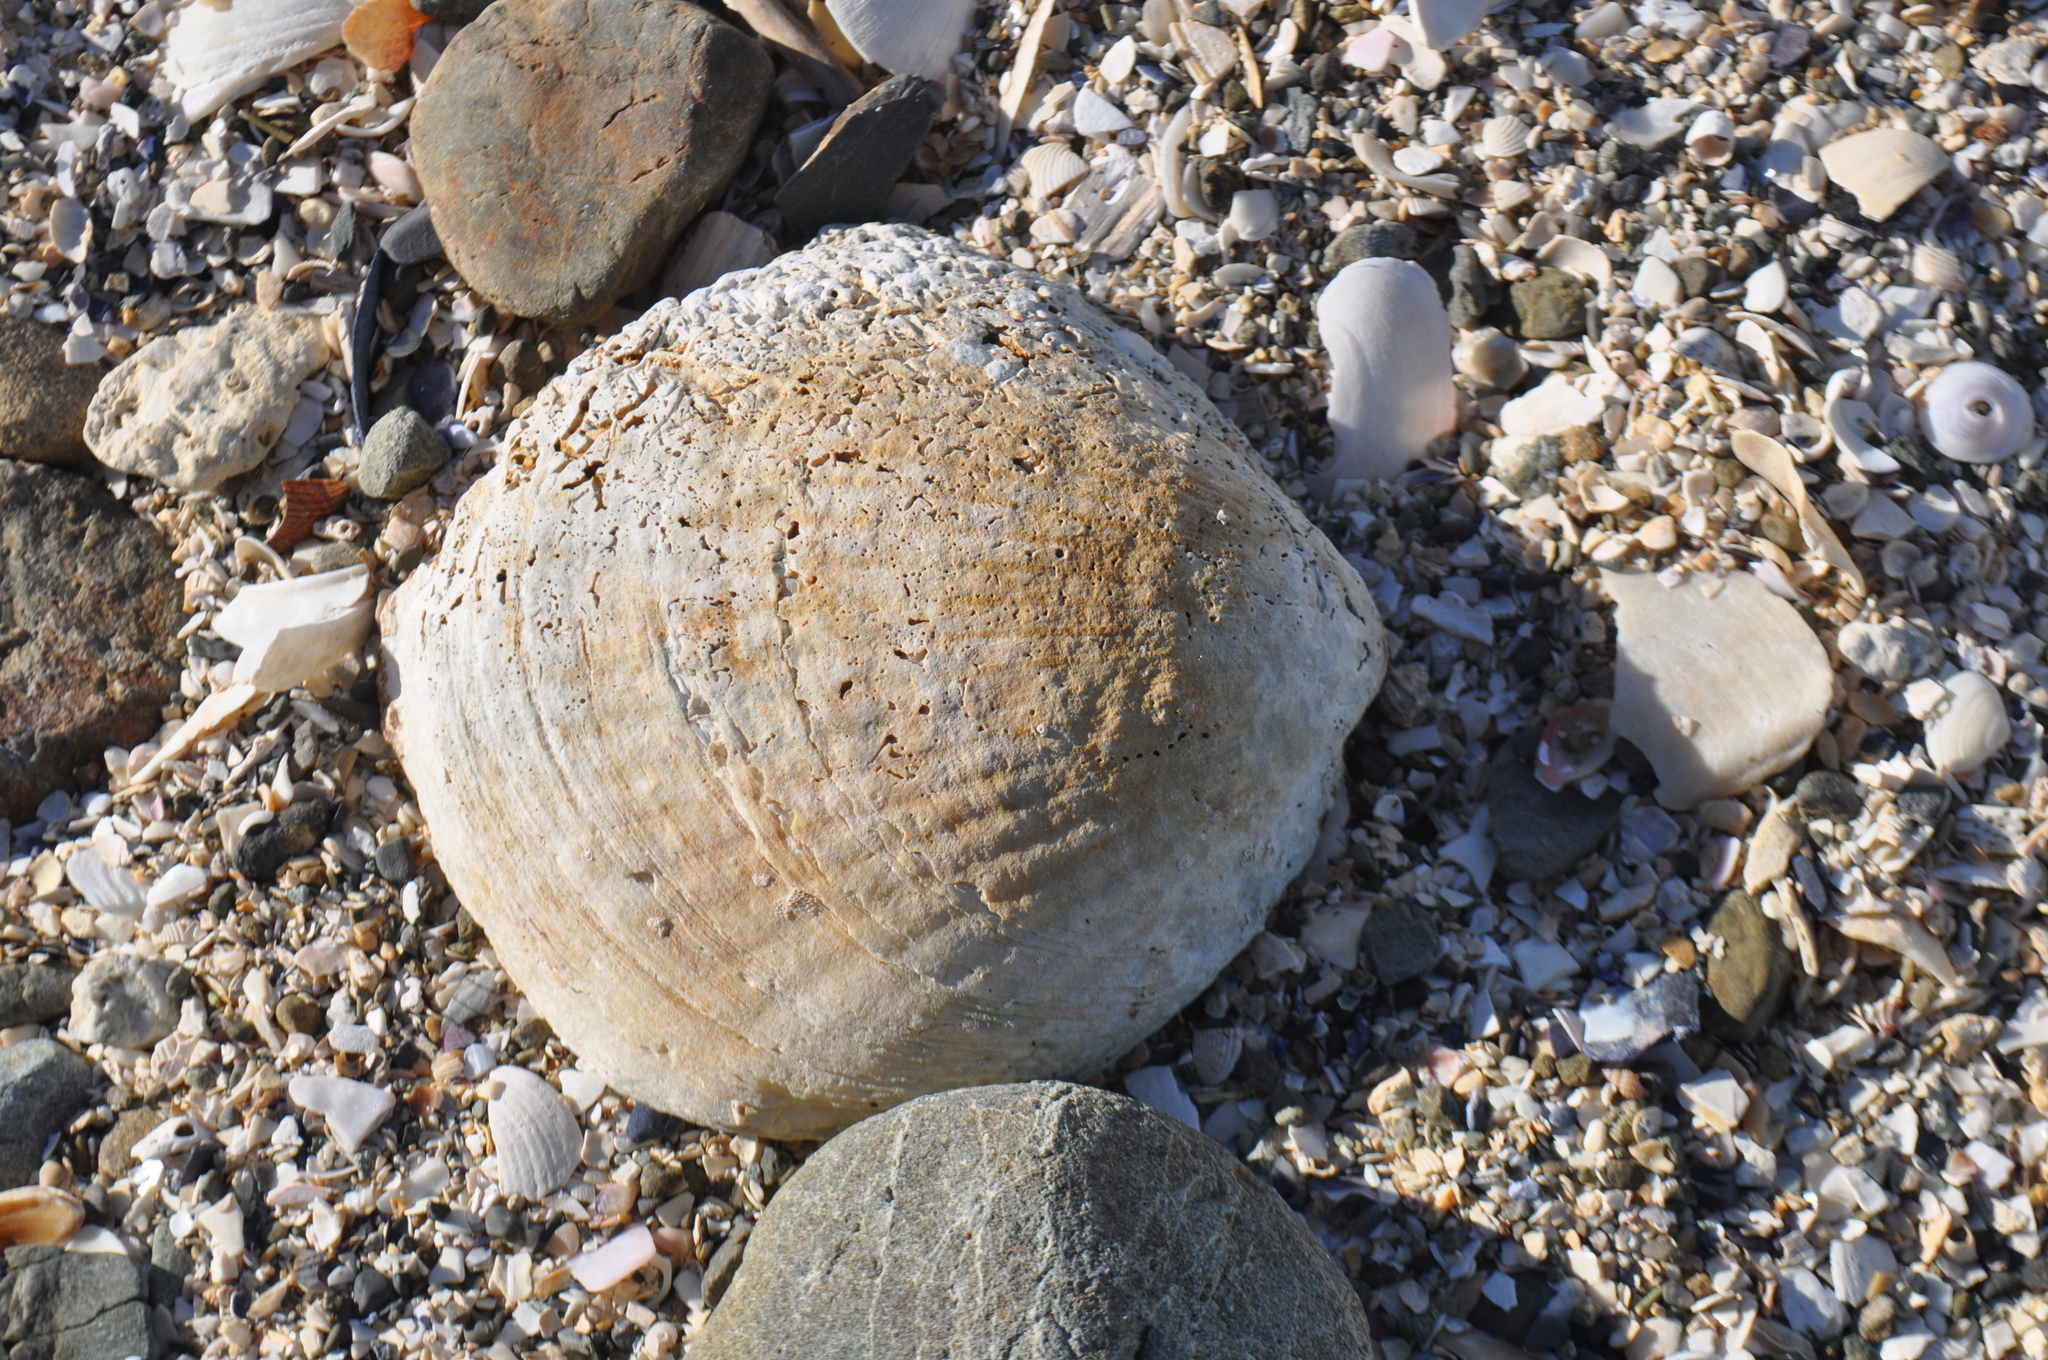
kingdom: Animalia
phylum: Mollusca
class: Bivalvia
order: Arcida
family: Glycymerididae
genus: Tucetona
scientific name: Tucetona laticostata
